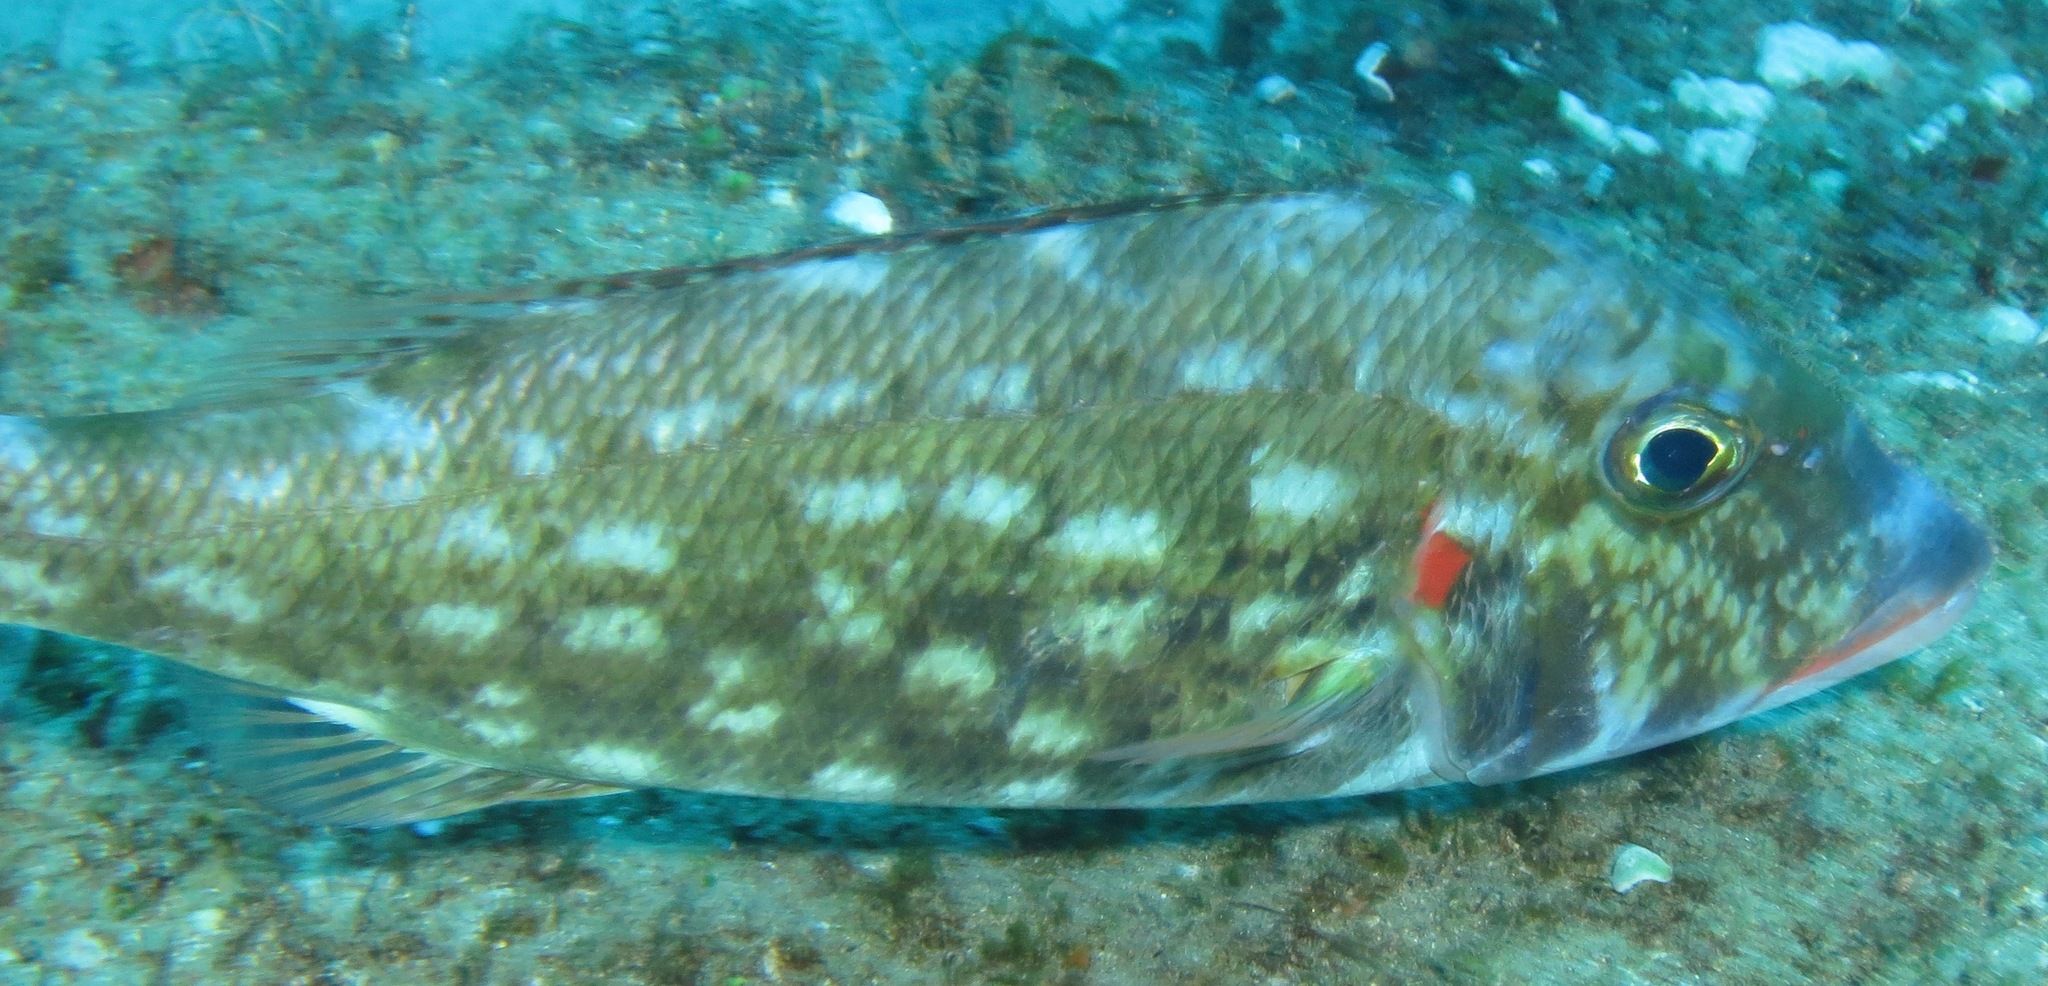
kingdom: Animalia
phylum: Chordata
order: Perciformes
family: Lethrinidae
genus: Lethrinus
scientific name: Lethrinus rubrioperculatus
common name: Spotcheek emperor
